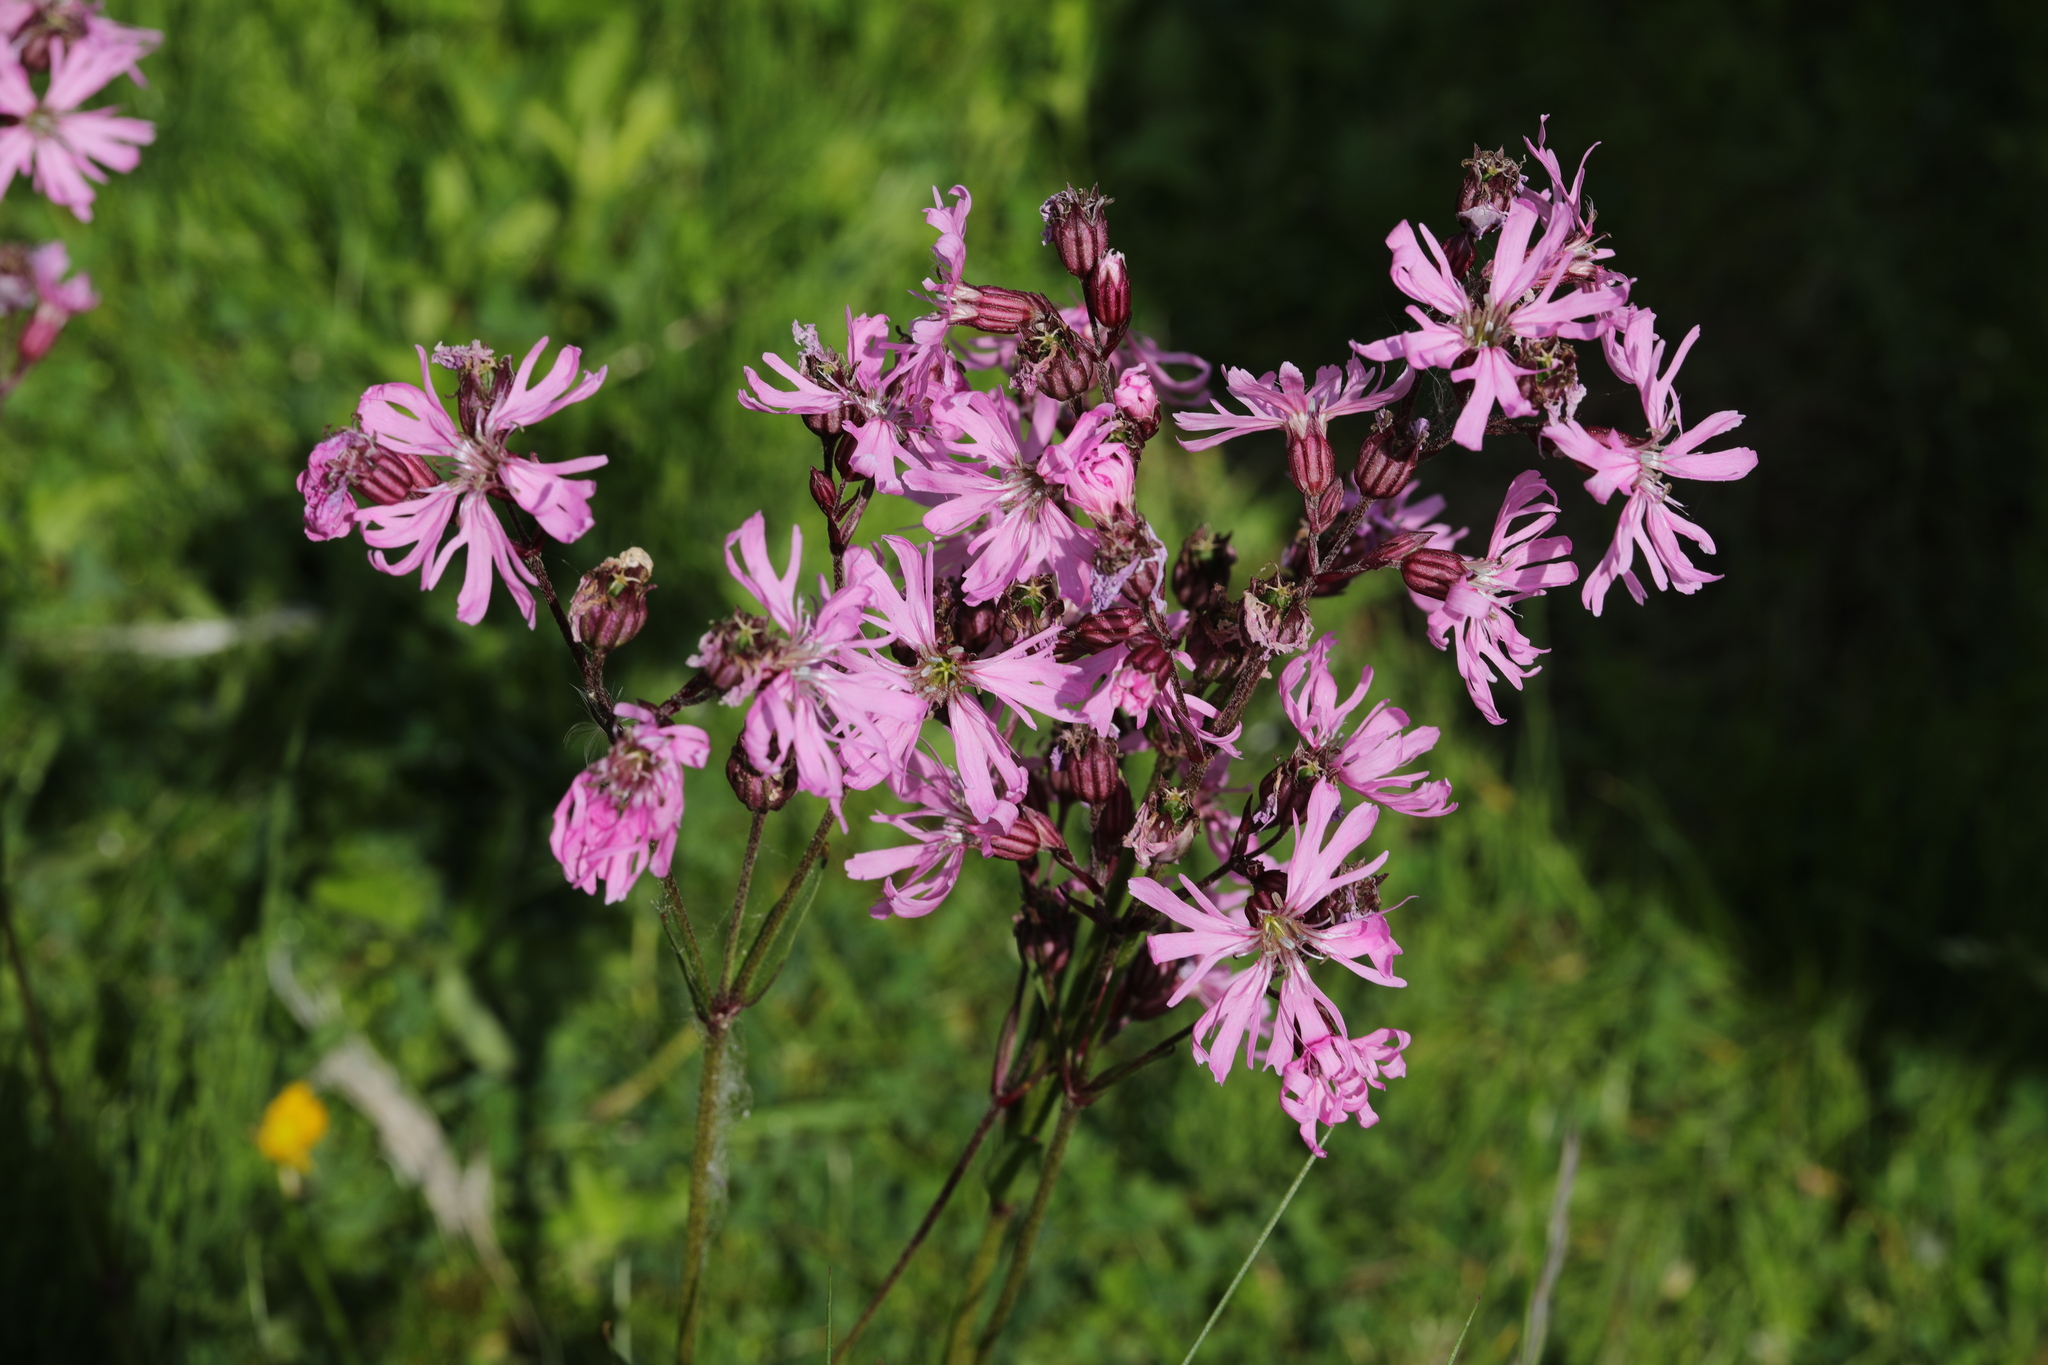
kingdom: Plantae
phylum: Tracheophyta
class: Magnoliopsida
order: Caryophyllales
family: Caryophyllaceae
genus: Silene
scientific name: Silene flos-cuculi
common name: Ragged-robin
